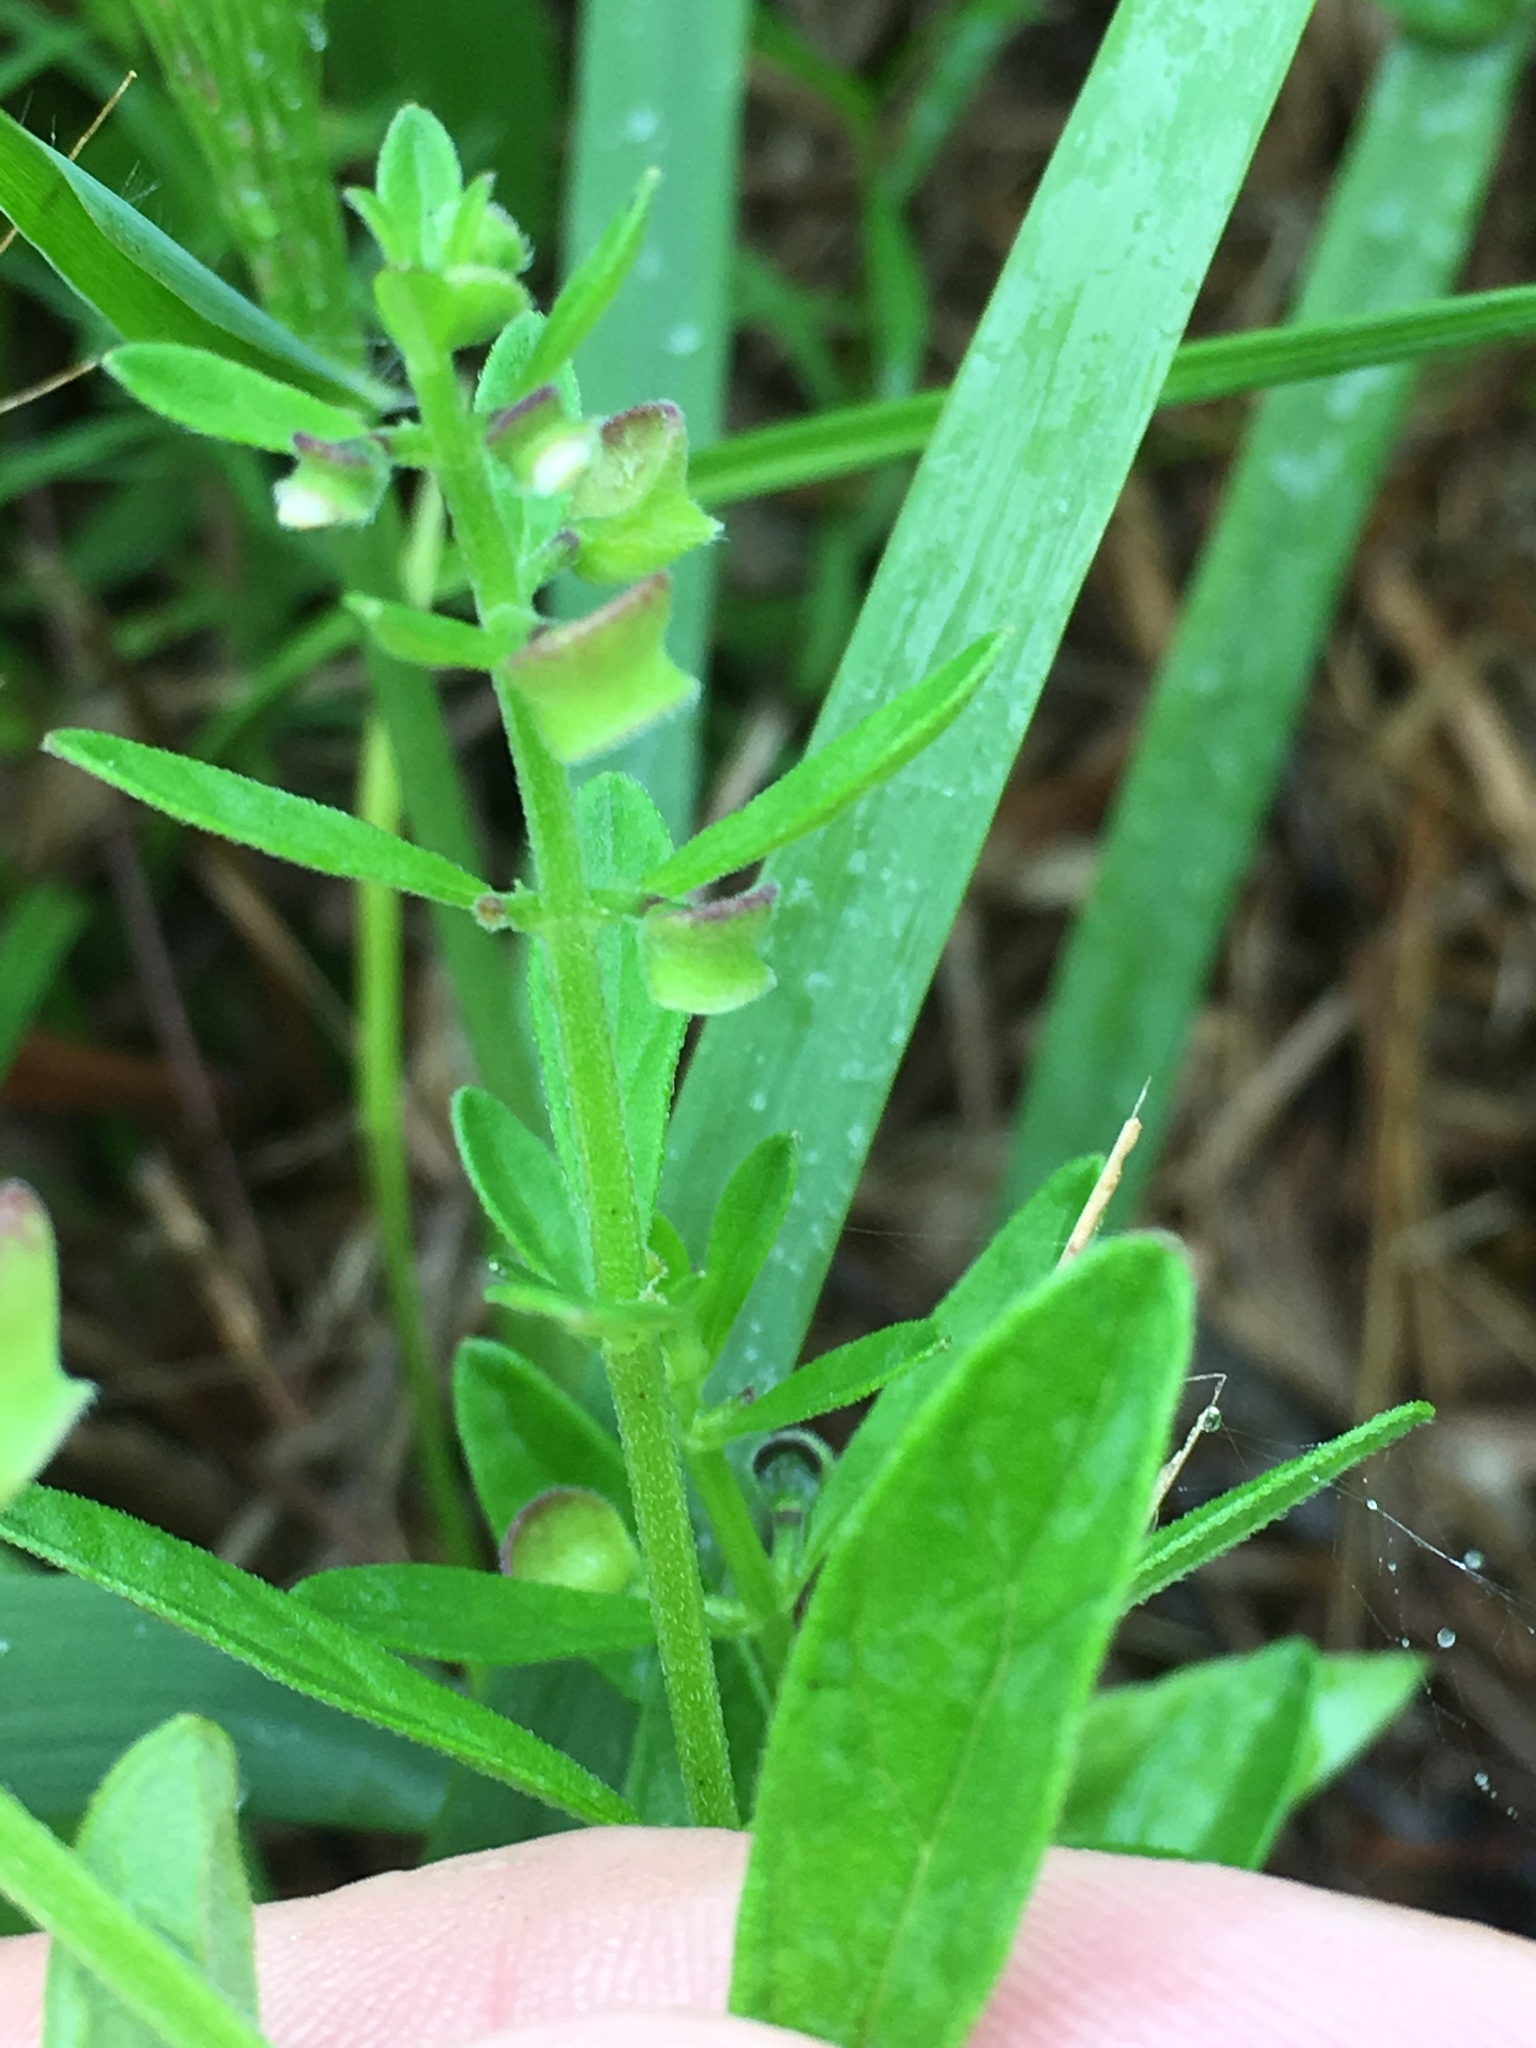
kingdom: Plantae
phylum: Tracheophyta
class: Magnoliopsida
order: Lamiales
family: Lamiaceae
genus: Scutellaria
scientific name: Scutellaria integrifolia
